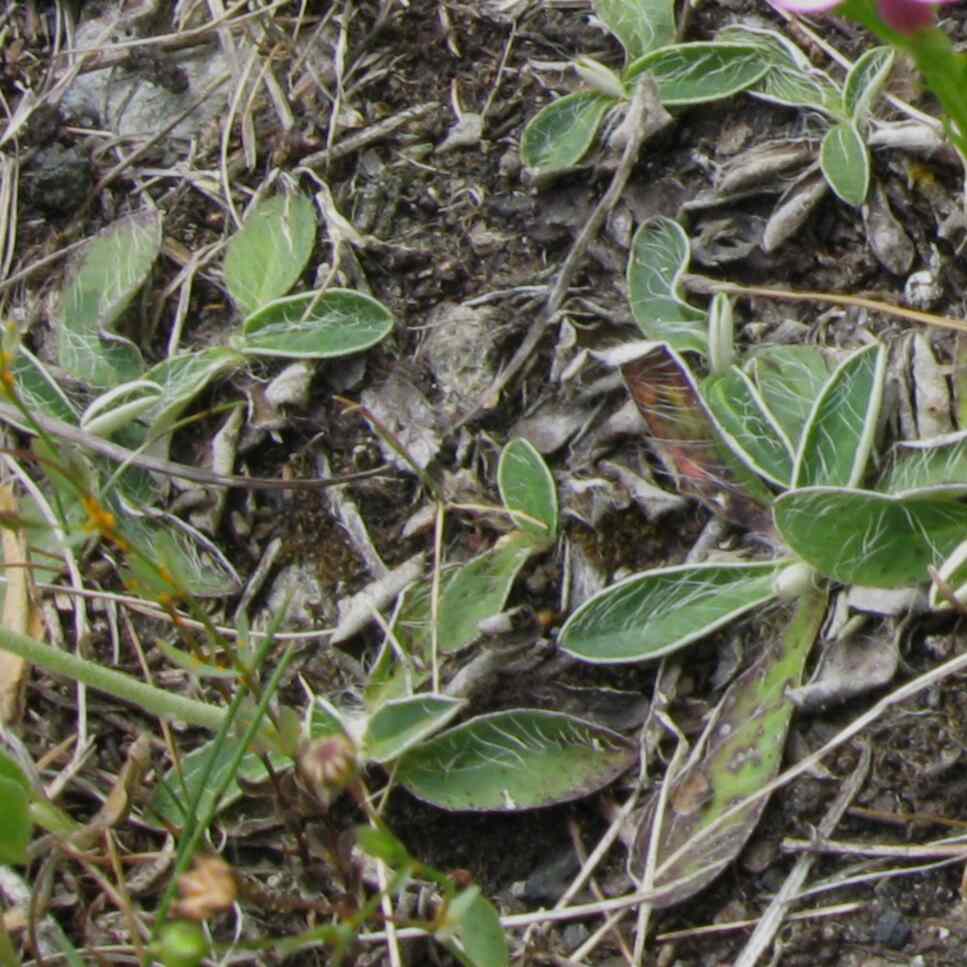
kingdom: Plantae
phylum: Tracheophyta
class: Magnoliopsida
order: Asterales
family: Asteraceae
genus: Pilosella
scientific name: Pilosella officinarum
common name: Mouse-ear hawkweed
